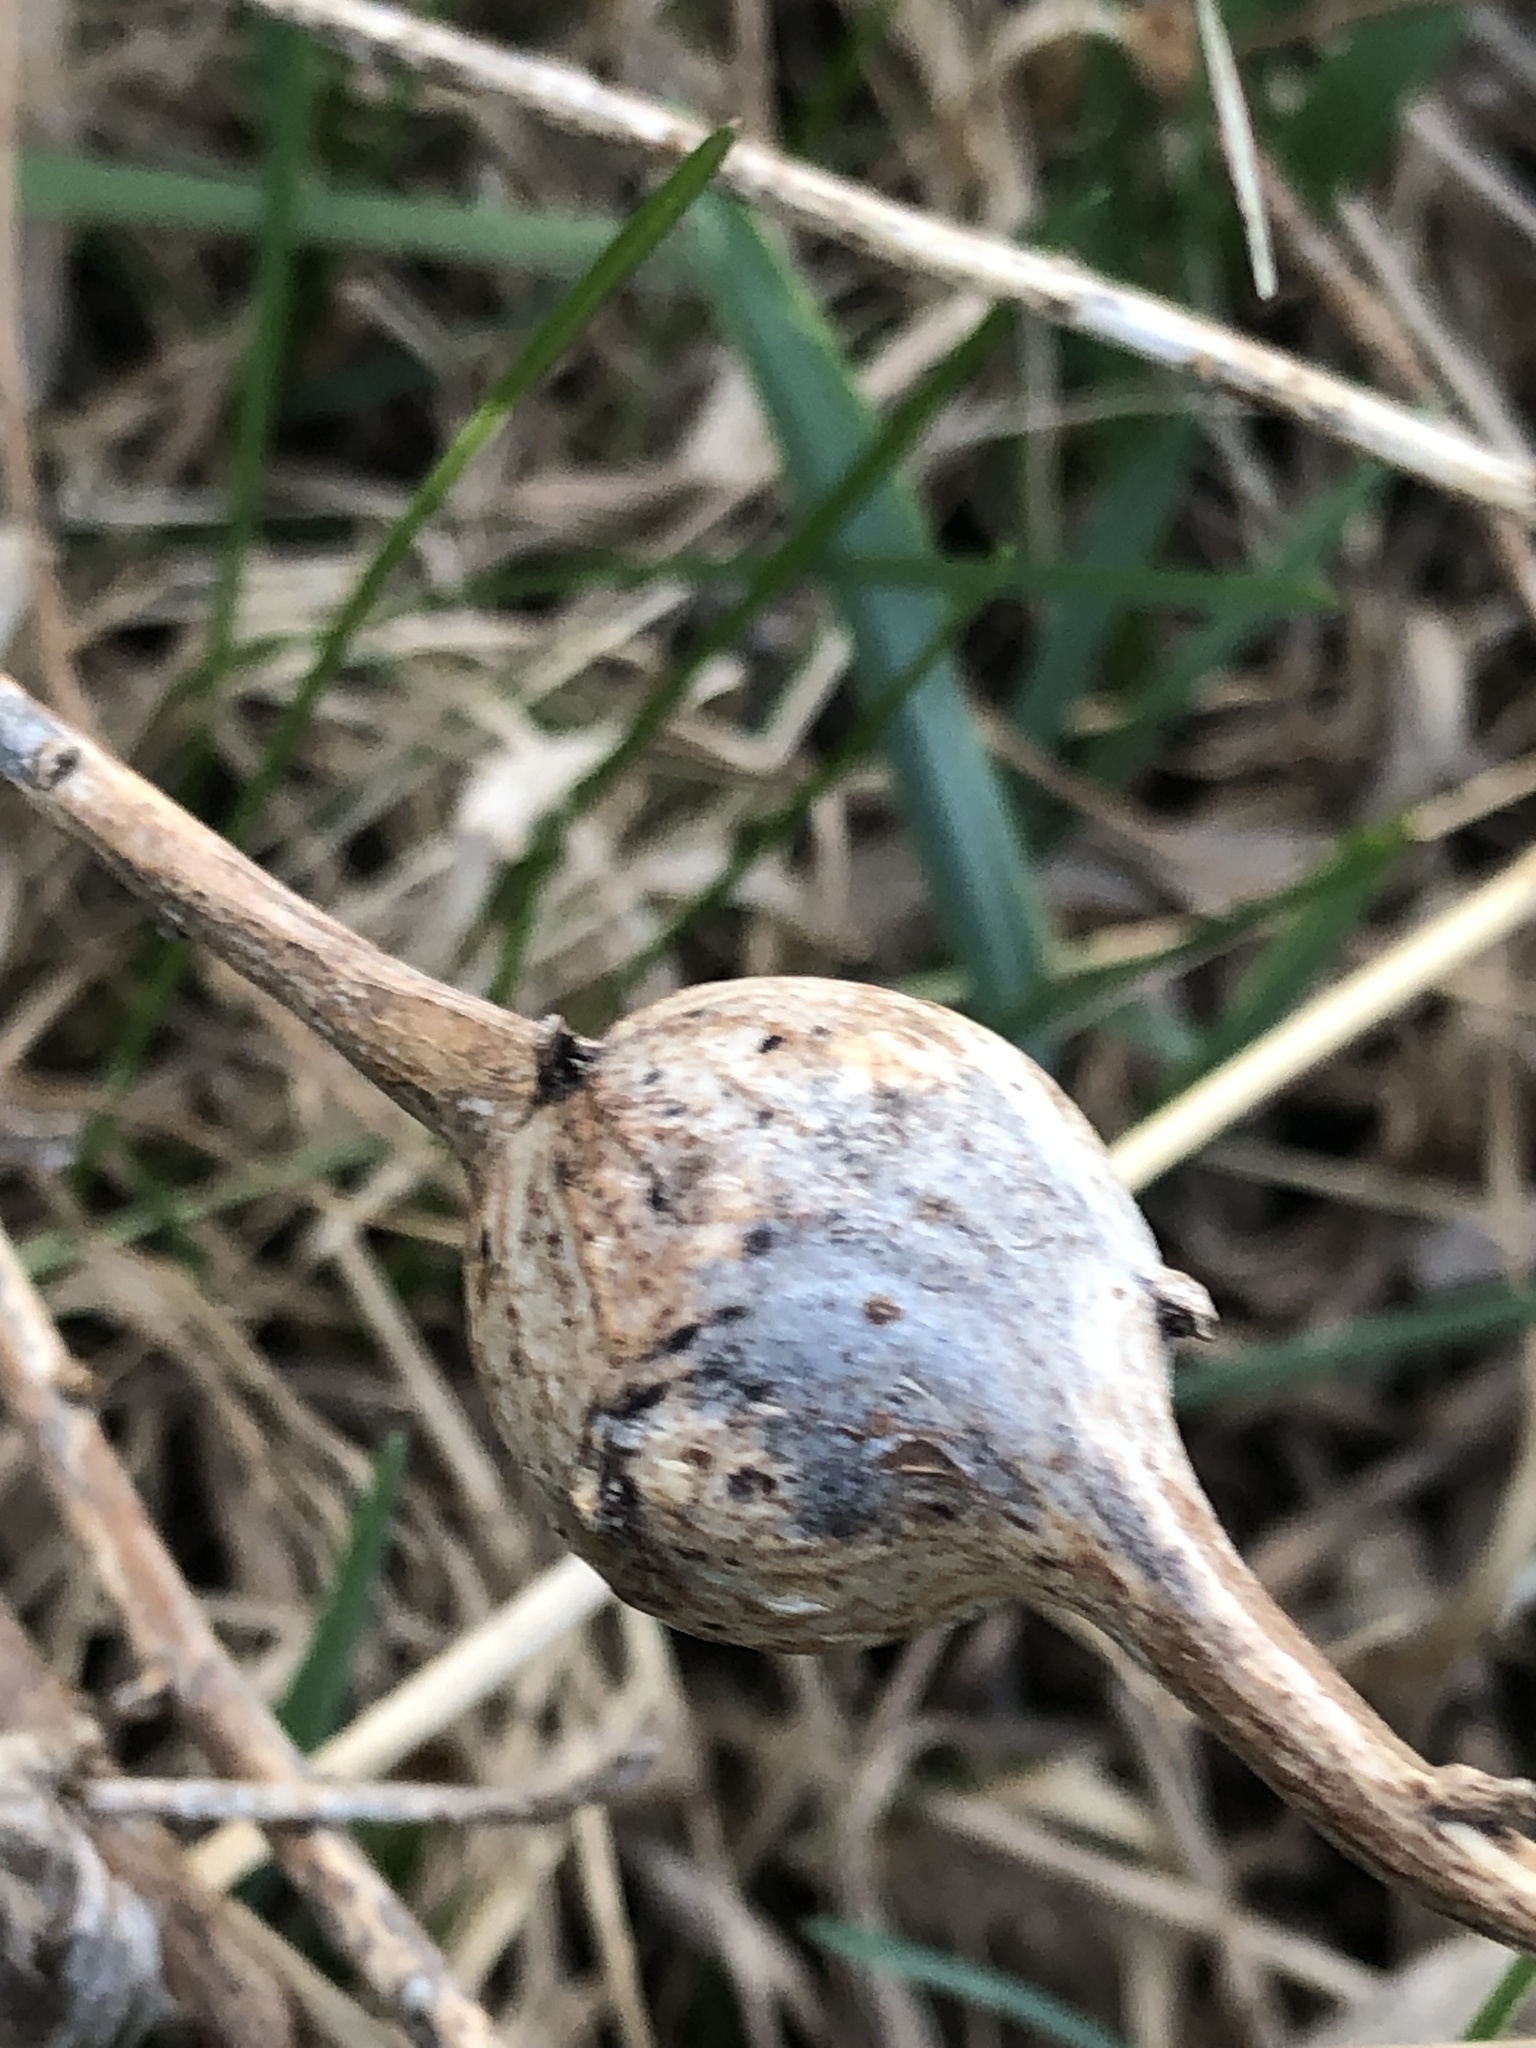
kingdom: Animalia
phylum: Arthropoda
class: Insecta
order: Diptera
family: Tephritidae
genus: Eurosta
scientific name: Eurosta solidaginis
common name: Goldenrod gall fly
